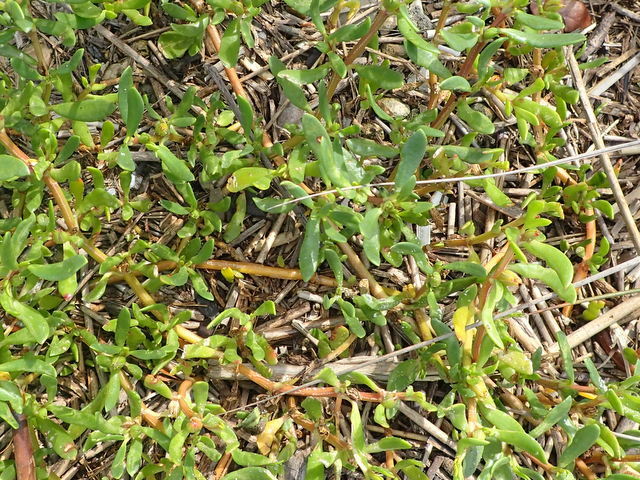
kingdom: Plantae
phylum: Tracheophyta
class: Magnoliopsida
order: Caryophyllales
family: Aizoaceae
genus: Sesuvium
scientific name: Sesuvium portulacastrum
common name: Sea-purslane
